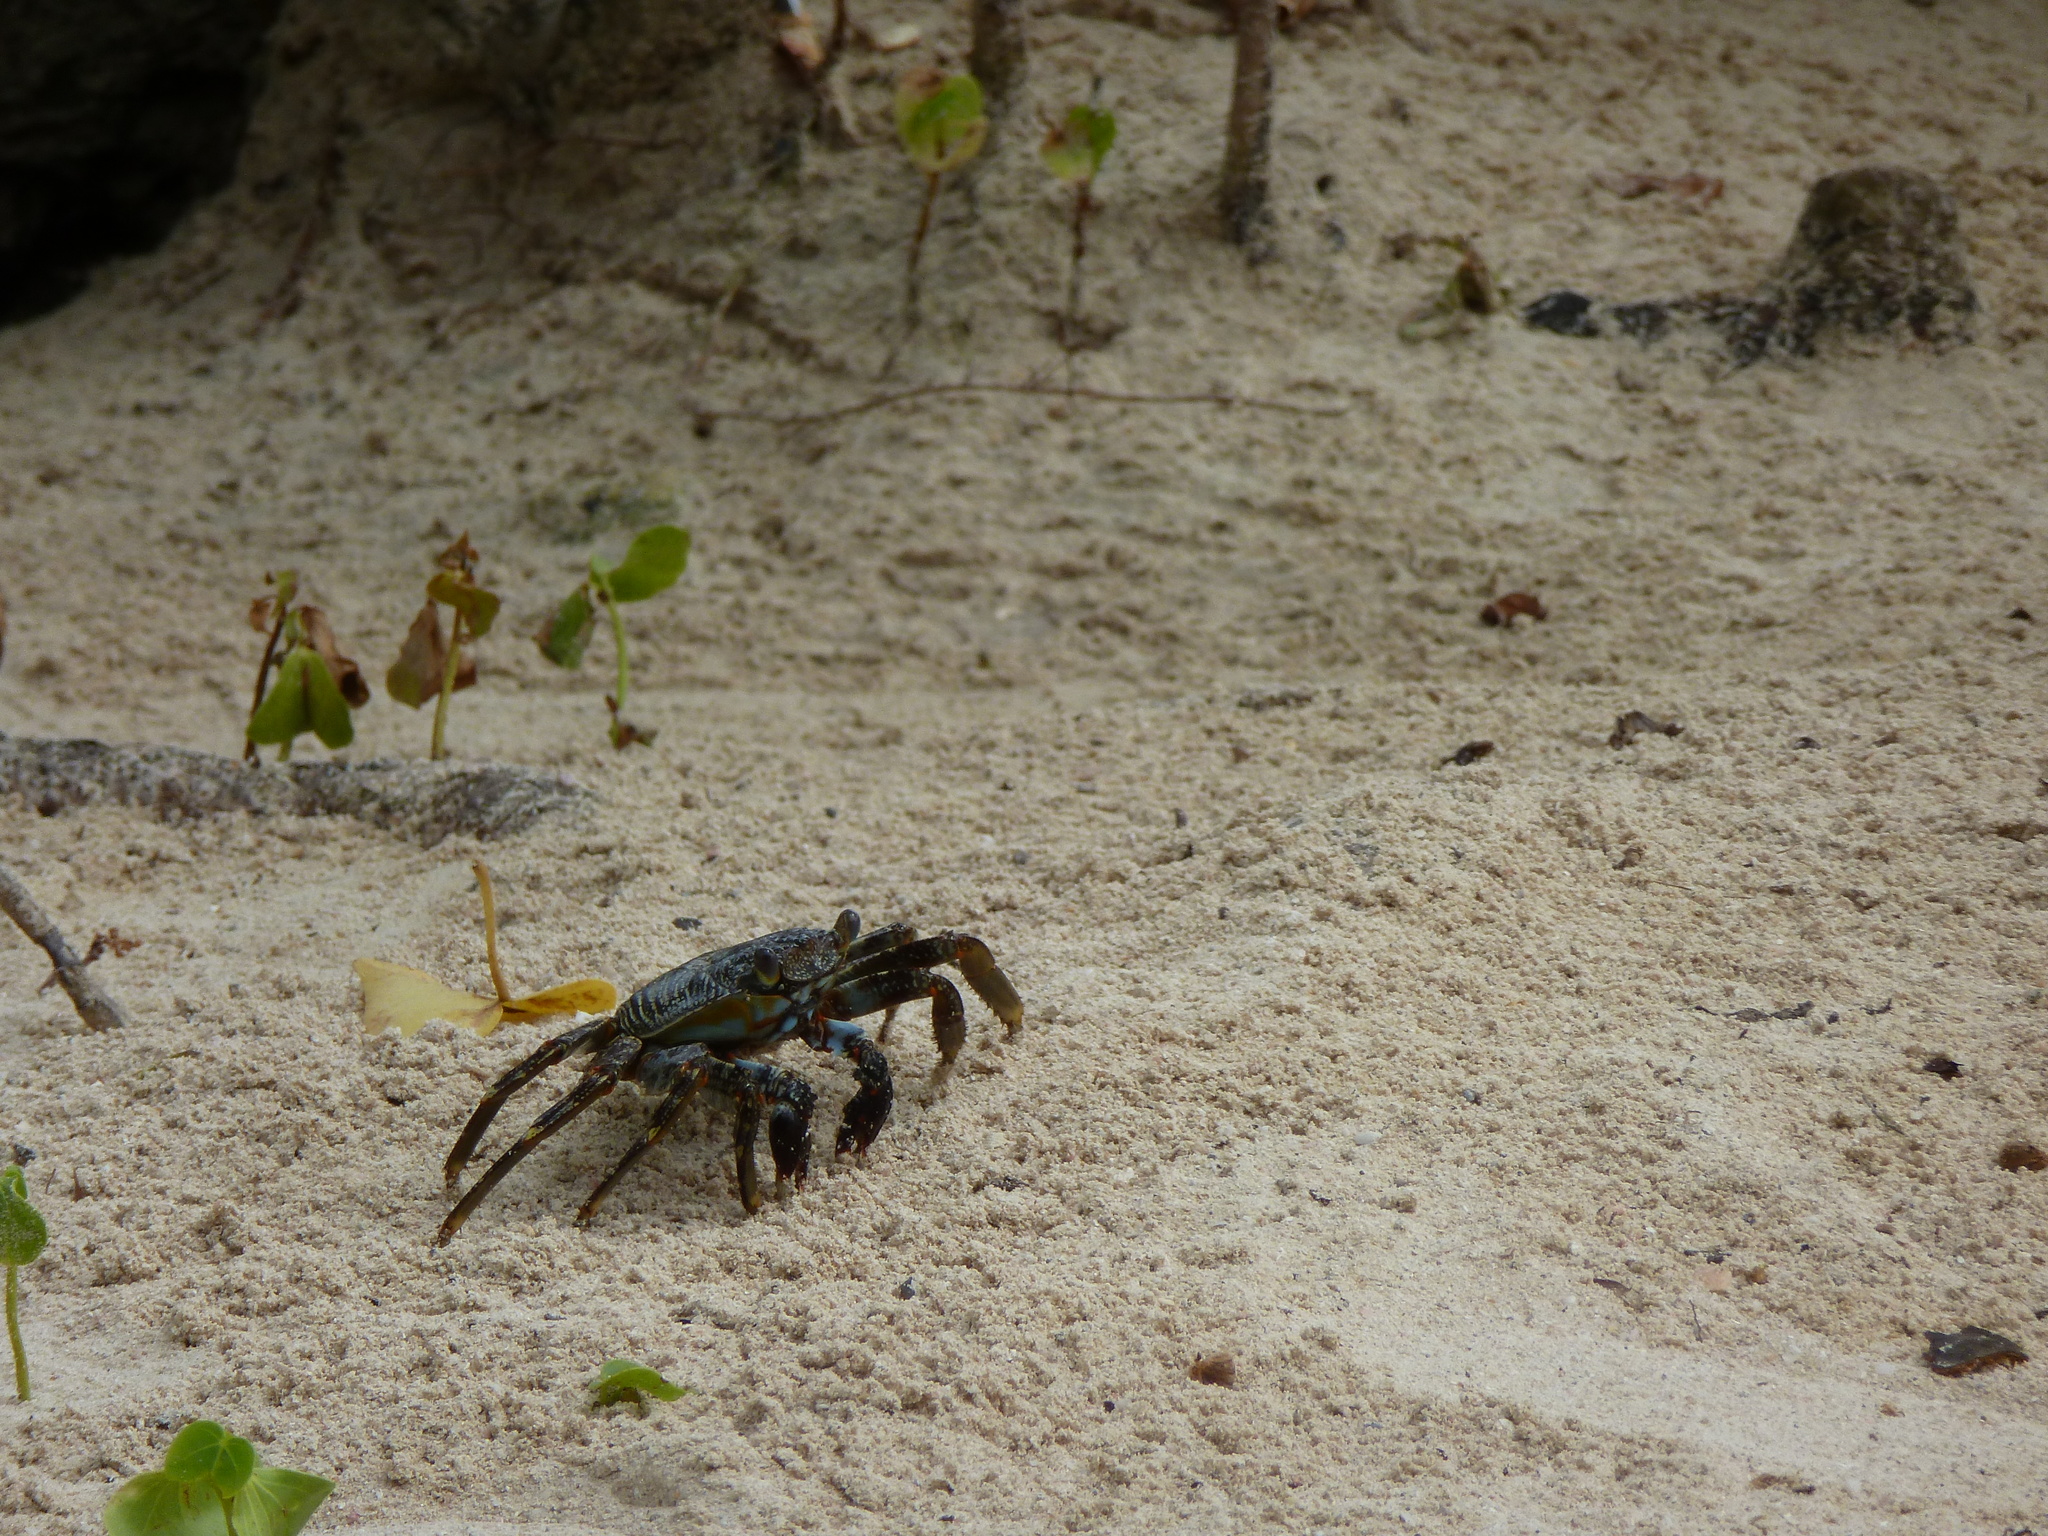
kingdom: Animalia
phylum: Arthropoda
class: Malacostraca
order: Decapoda
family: Grapsidae
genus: Grapsus
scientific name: Grapsus grapsus
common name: Sally lightfoot
